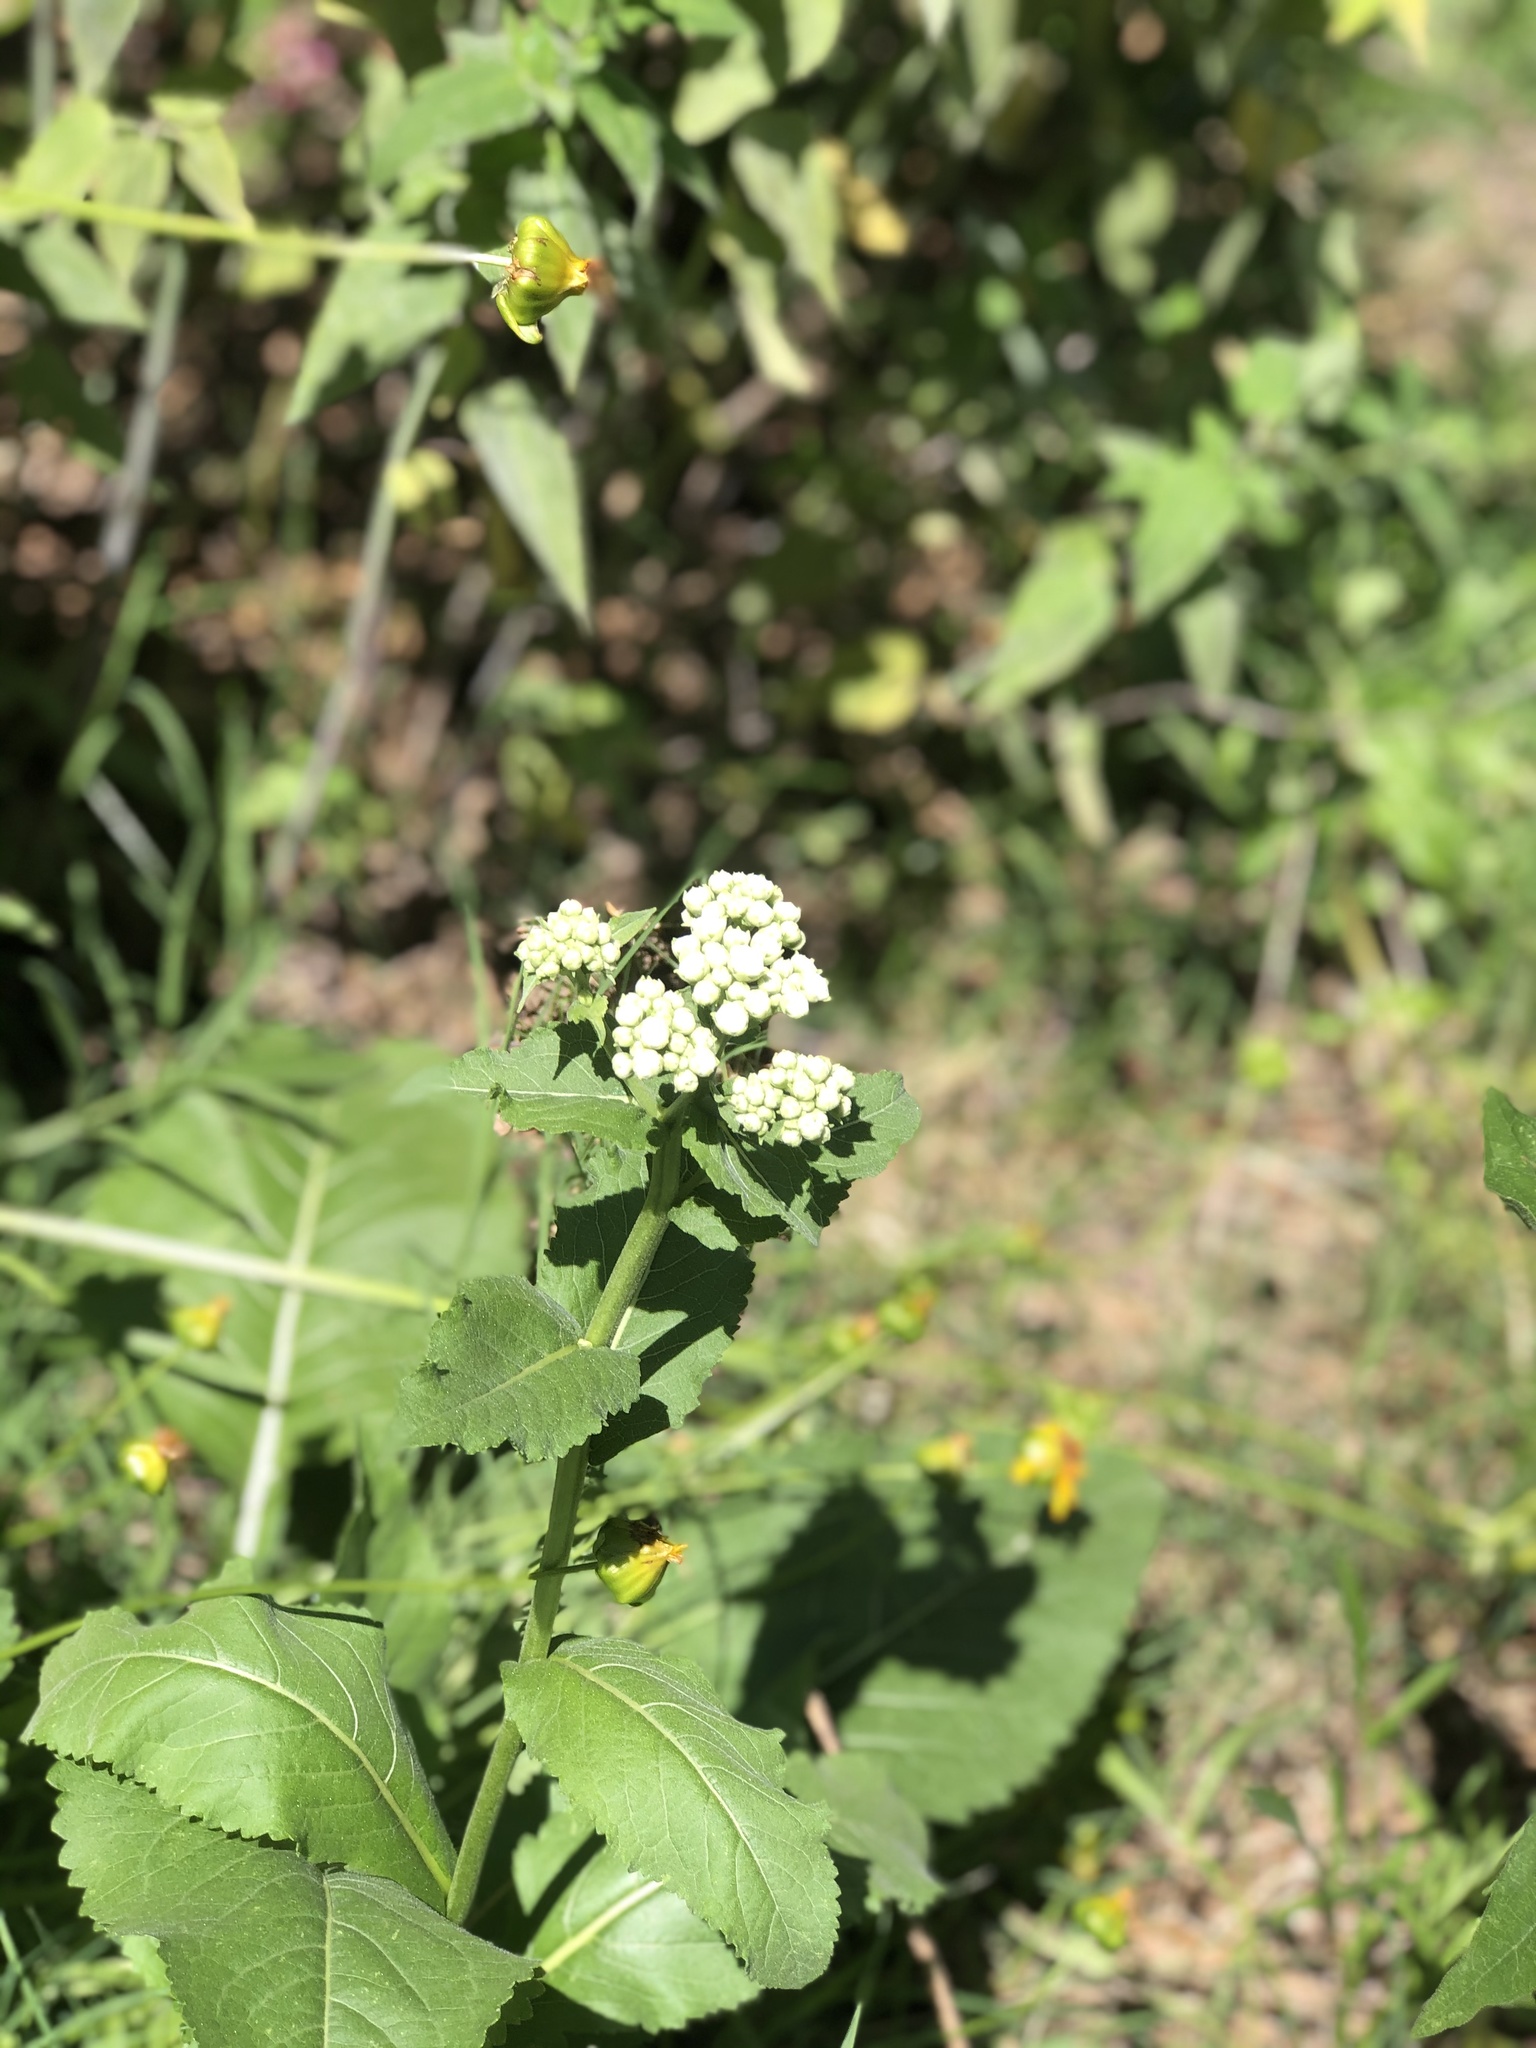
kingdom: Plantae
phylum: Tracheophyta
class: Magnoliopsida
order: Asterales
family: Asteraceae
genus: Parthenium
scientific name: Parthenium integrifolium
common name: American feverfew
